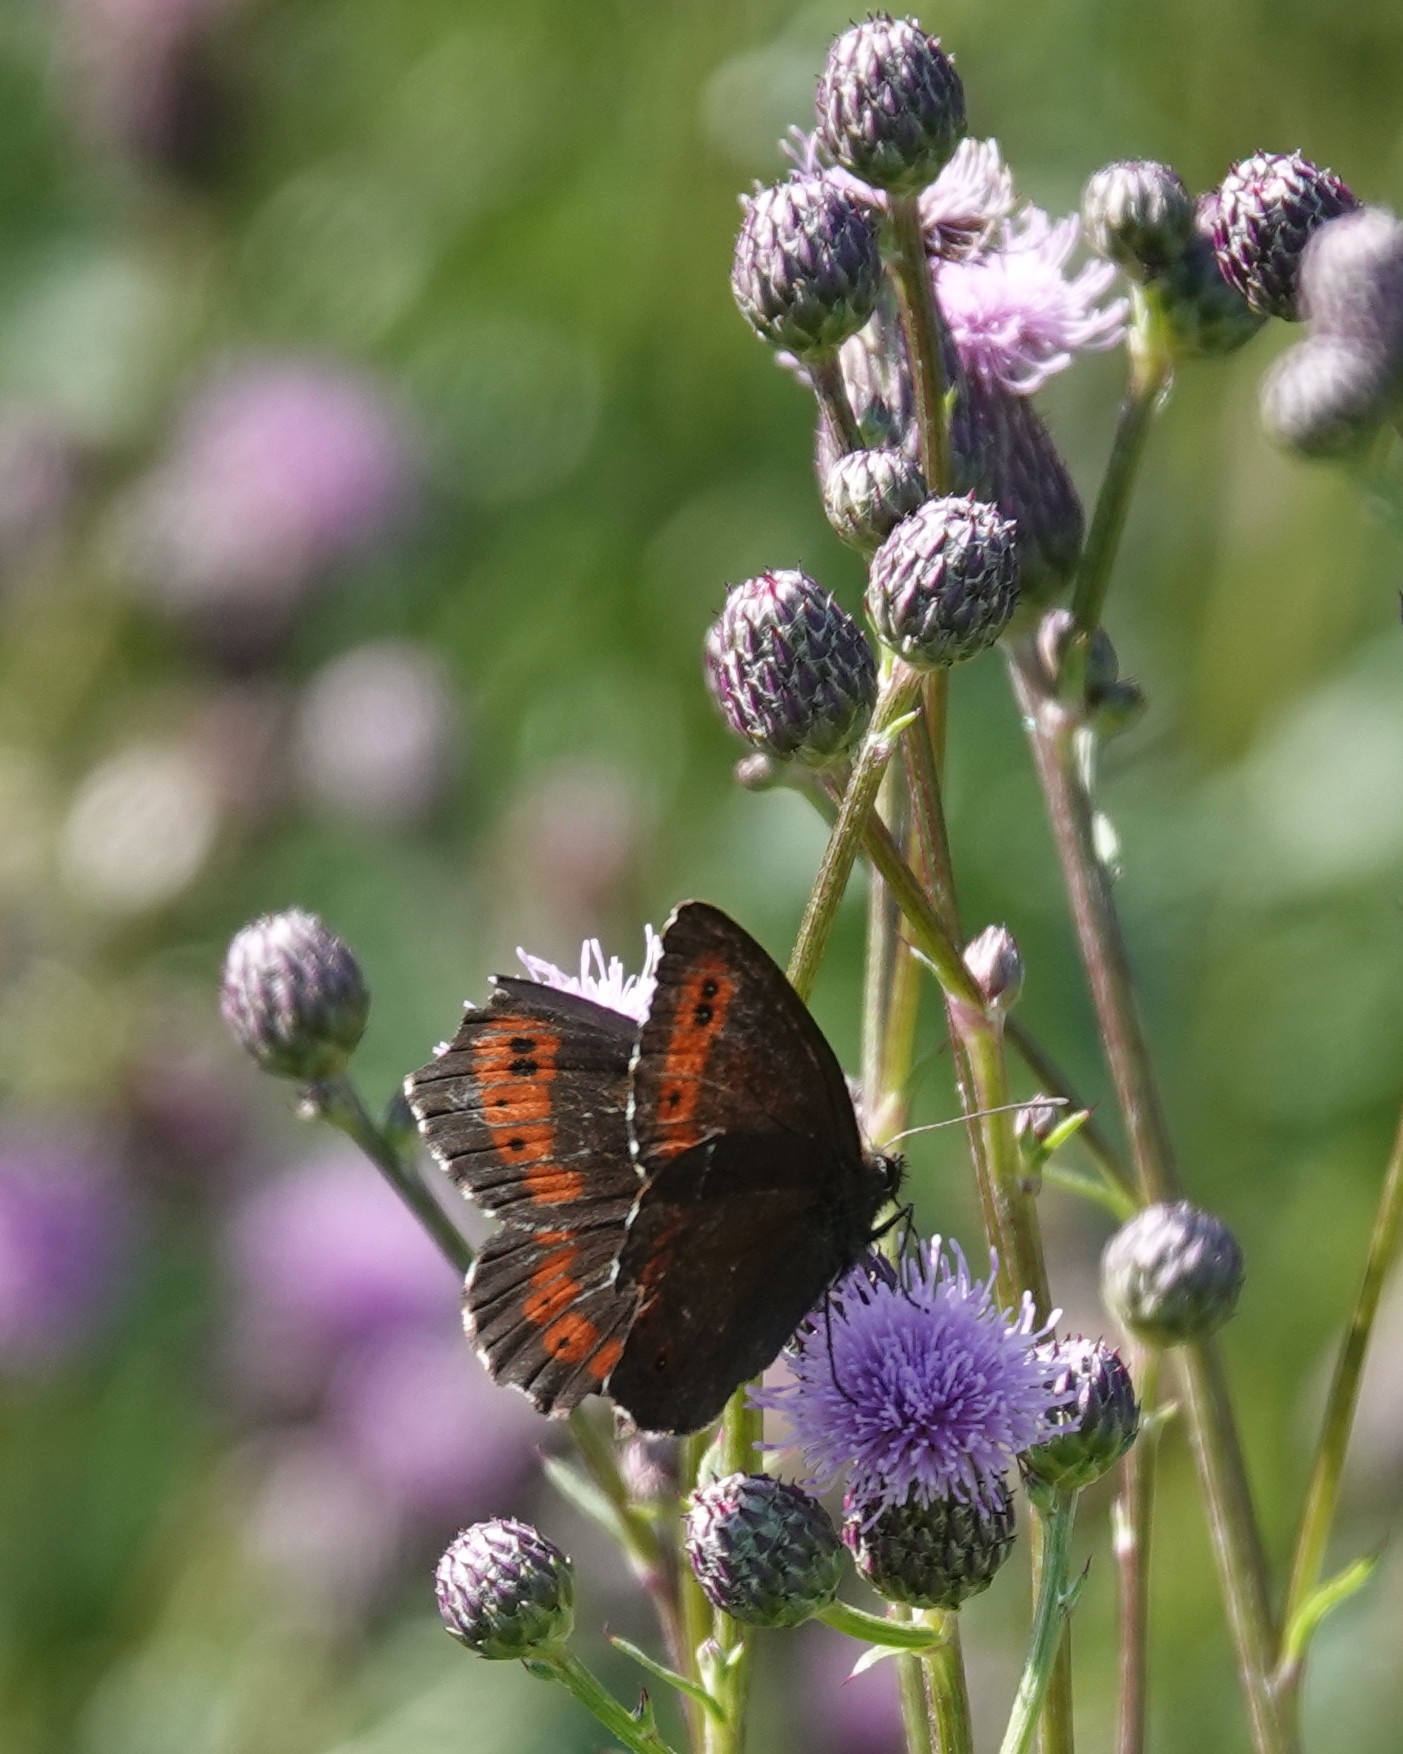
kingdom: Animalia
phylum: Arthropoda
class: Insecta
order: Lepidoptera
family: Nymphalidae
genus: Erebia
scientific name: Erebia ligea
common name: Arran brown
